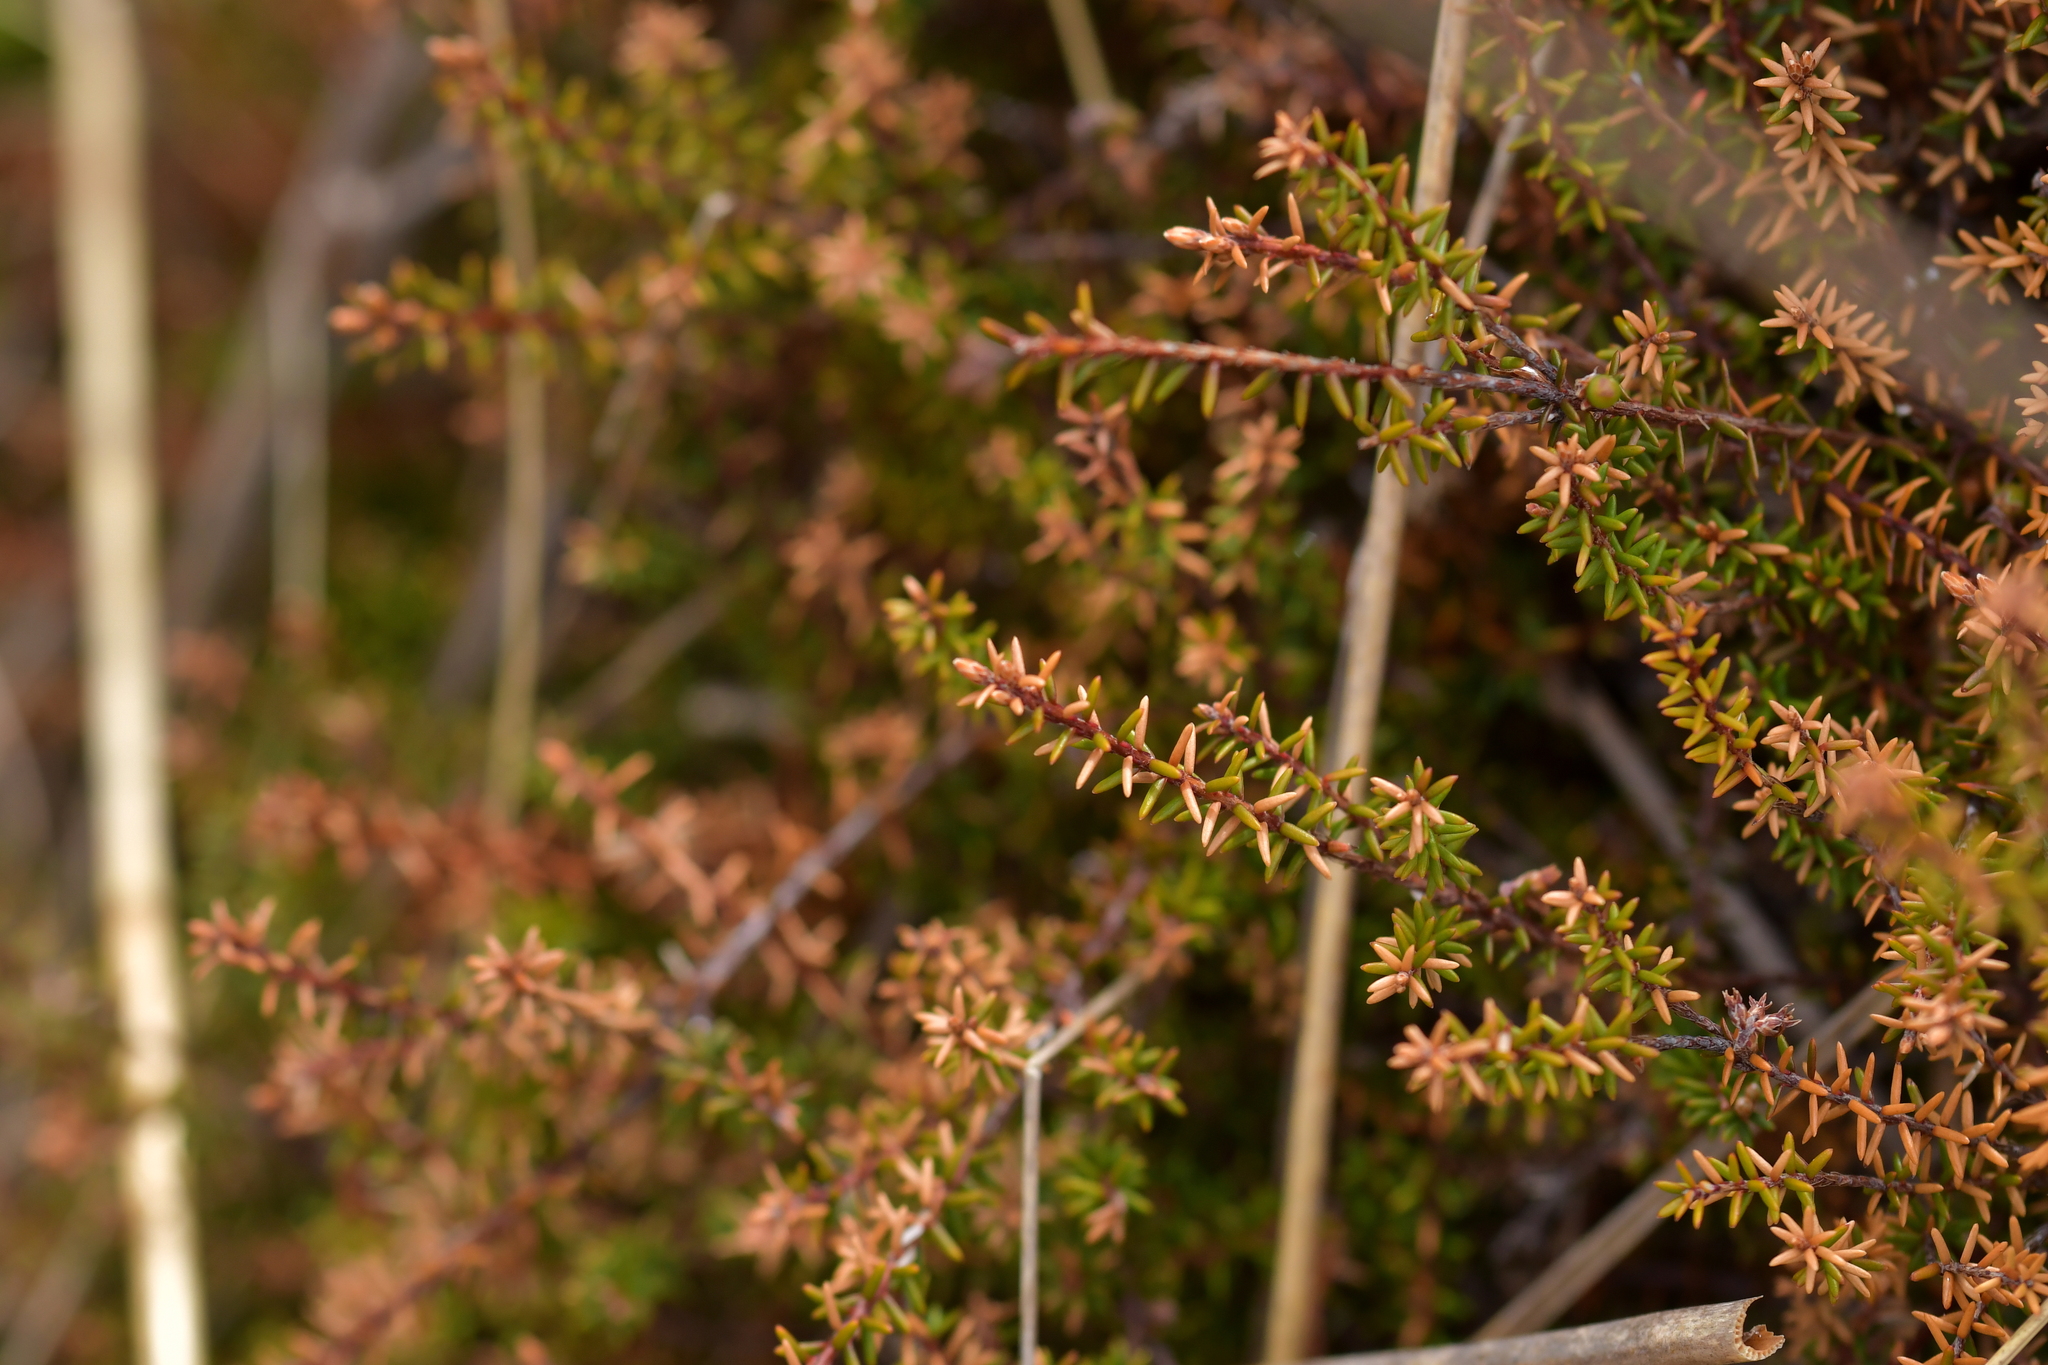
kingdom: Plantae
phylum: Tracheophyta
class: Magnoliopsida
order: Ericales
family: Ericaceae
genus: Androstoma
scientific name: Androstoma empetrifolia
